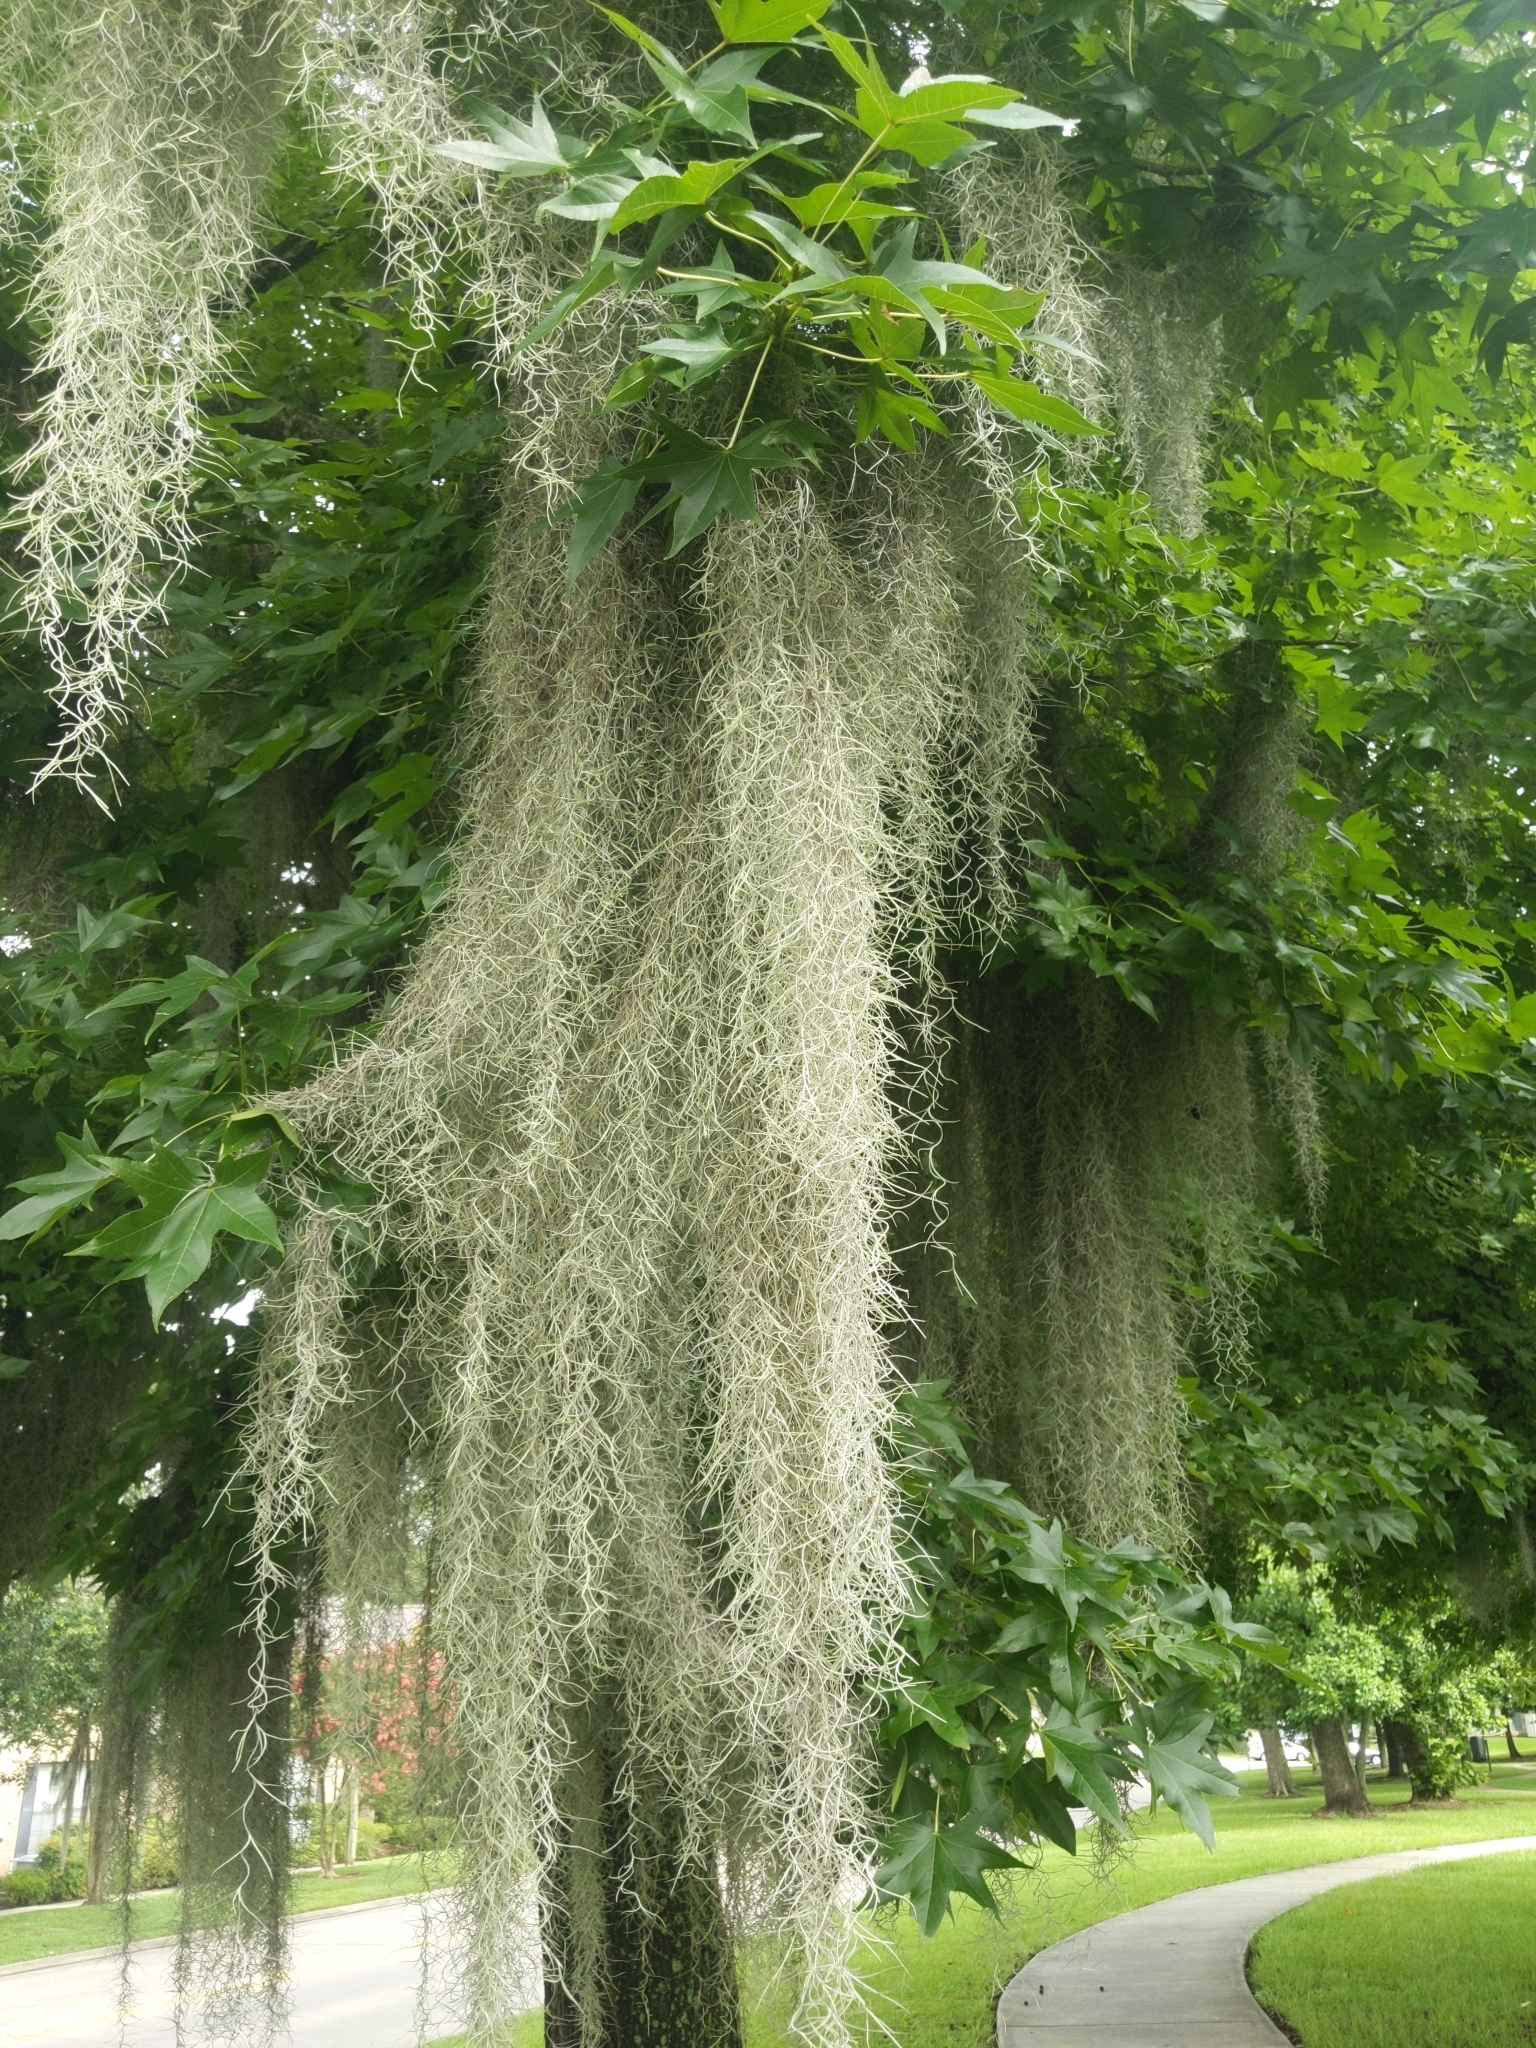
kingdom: Plantae
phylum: Tracheophyta
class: Liliopsida
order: Poales
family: Bromeliaceae
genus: Tillandsia
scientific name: Tillandsia usneoides
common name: Spanish moss
